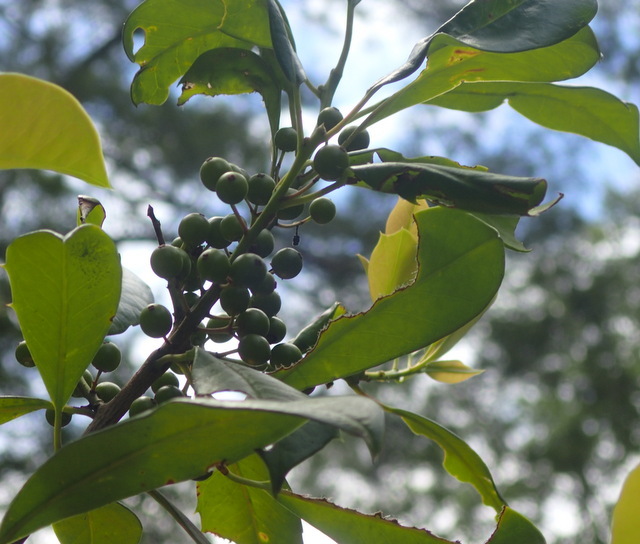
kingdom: Plantae
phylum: Tracheophyta
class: Magnoliopsida
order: Aquifoliales
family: Aquifoliaceae
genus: Ilex
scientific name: Ilex opaca
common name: American holly
